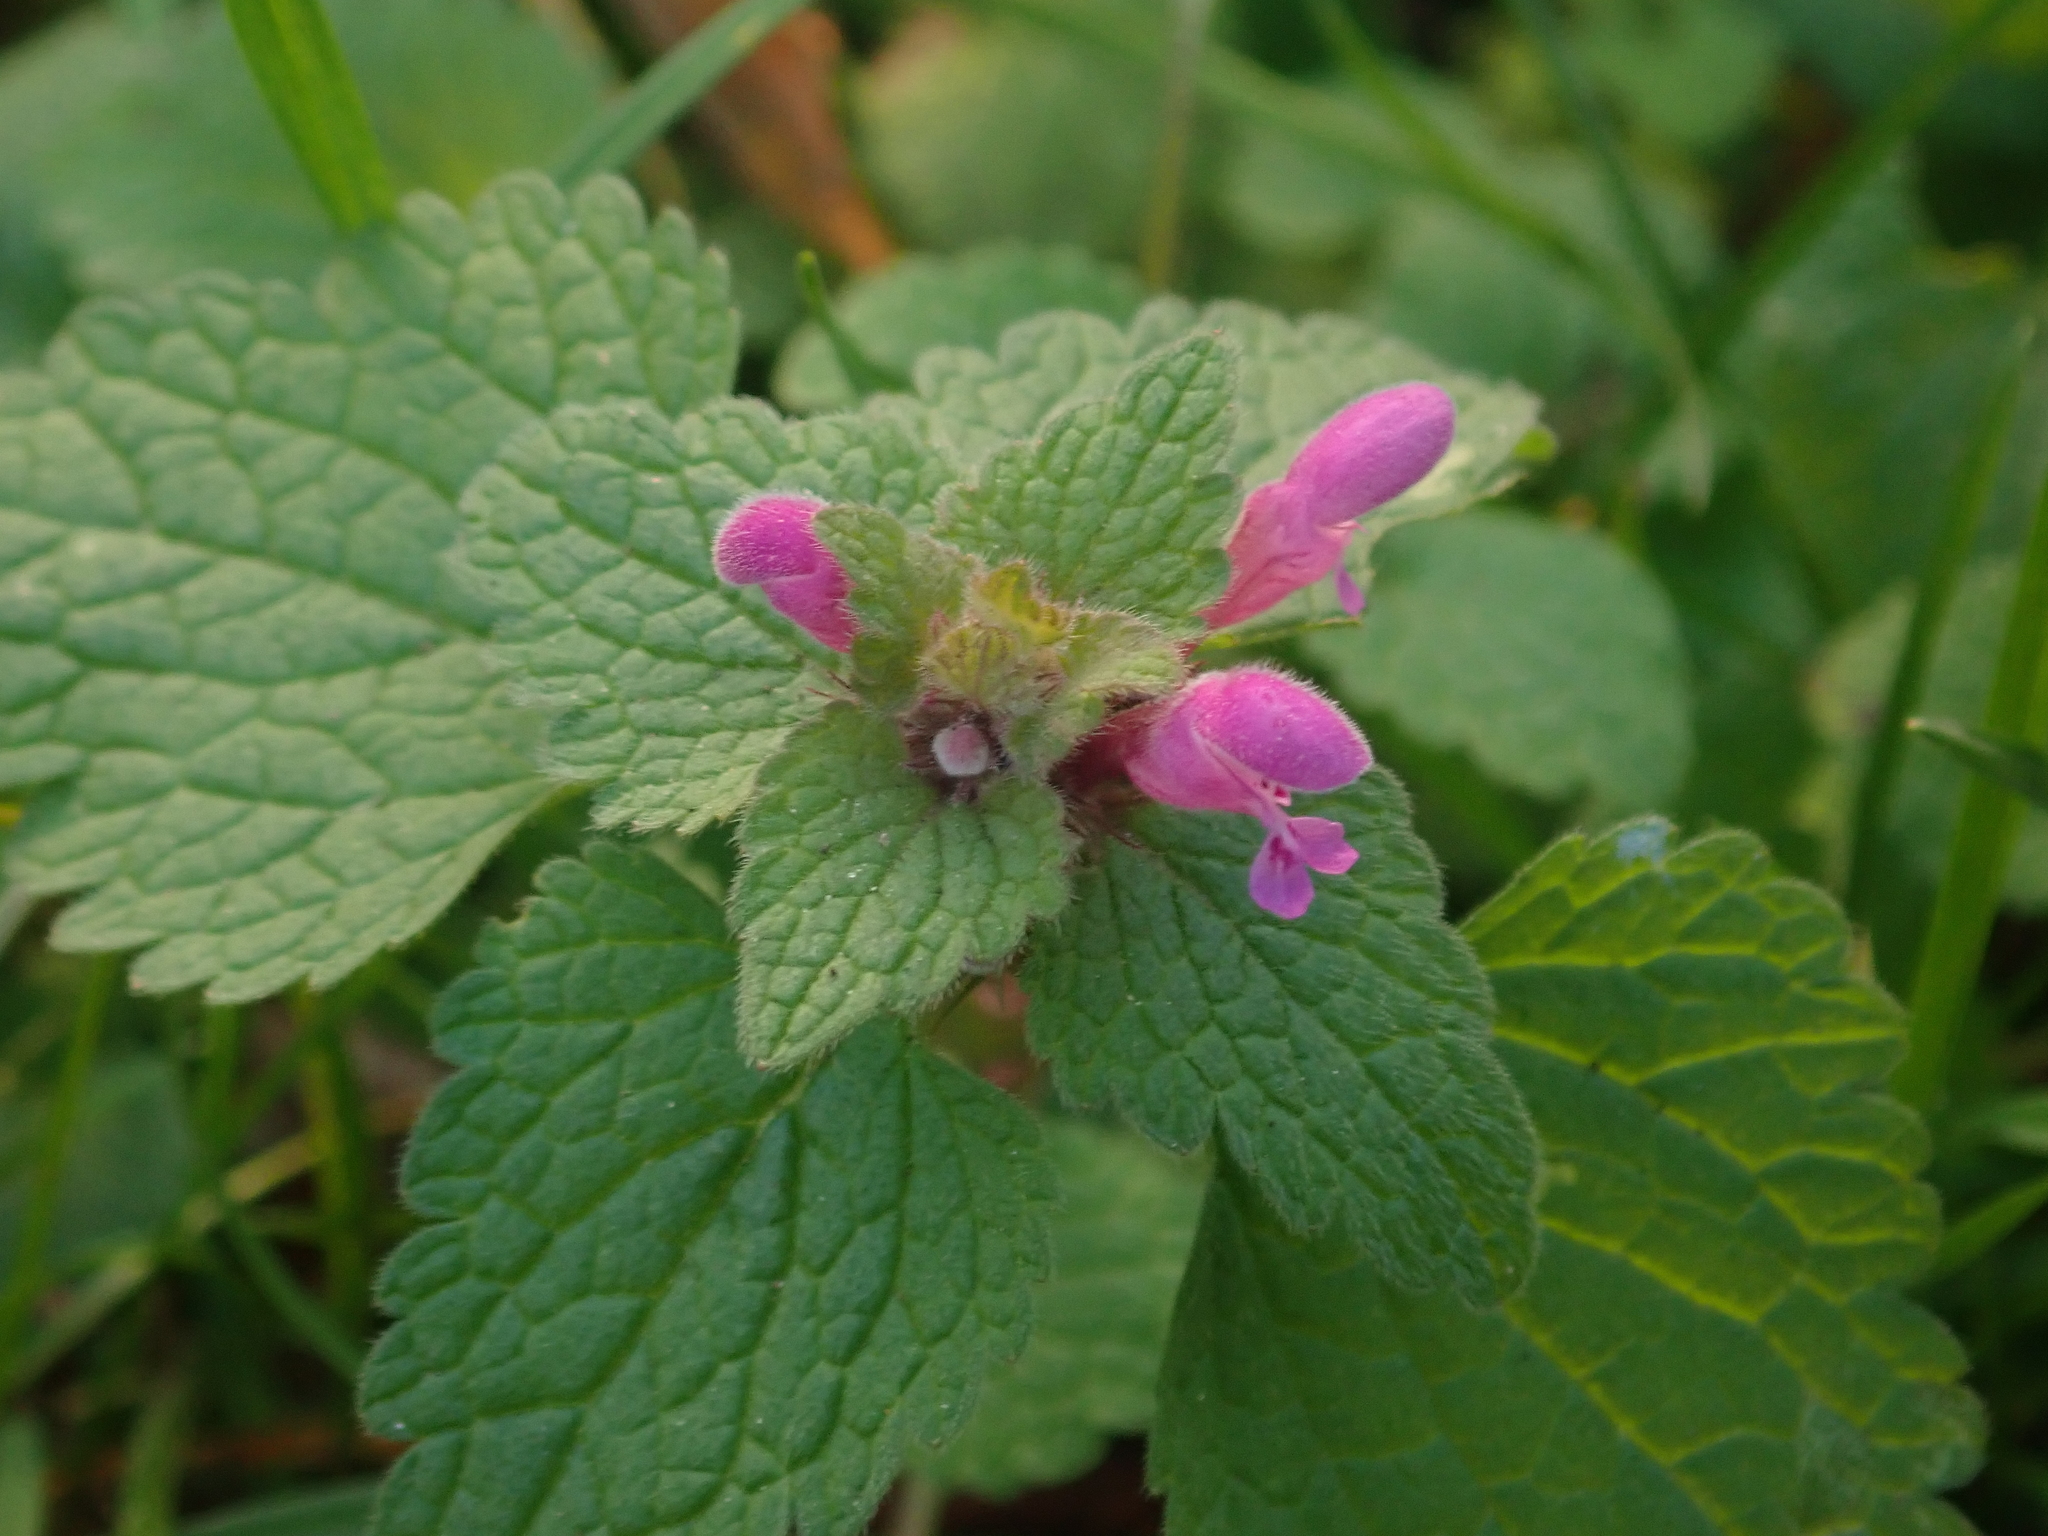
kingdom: Plantae
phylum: Tracheophyta
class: Magnoliopsida
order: Lamiales
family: Lamiaceae
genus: Lamium
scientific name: Lamium purpureum
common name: Red dead-nettle
